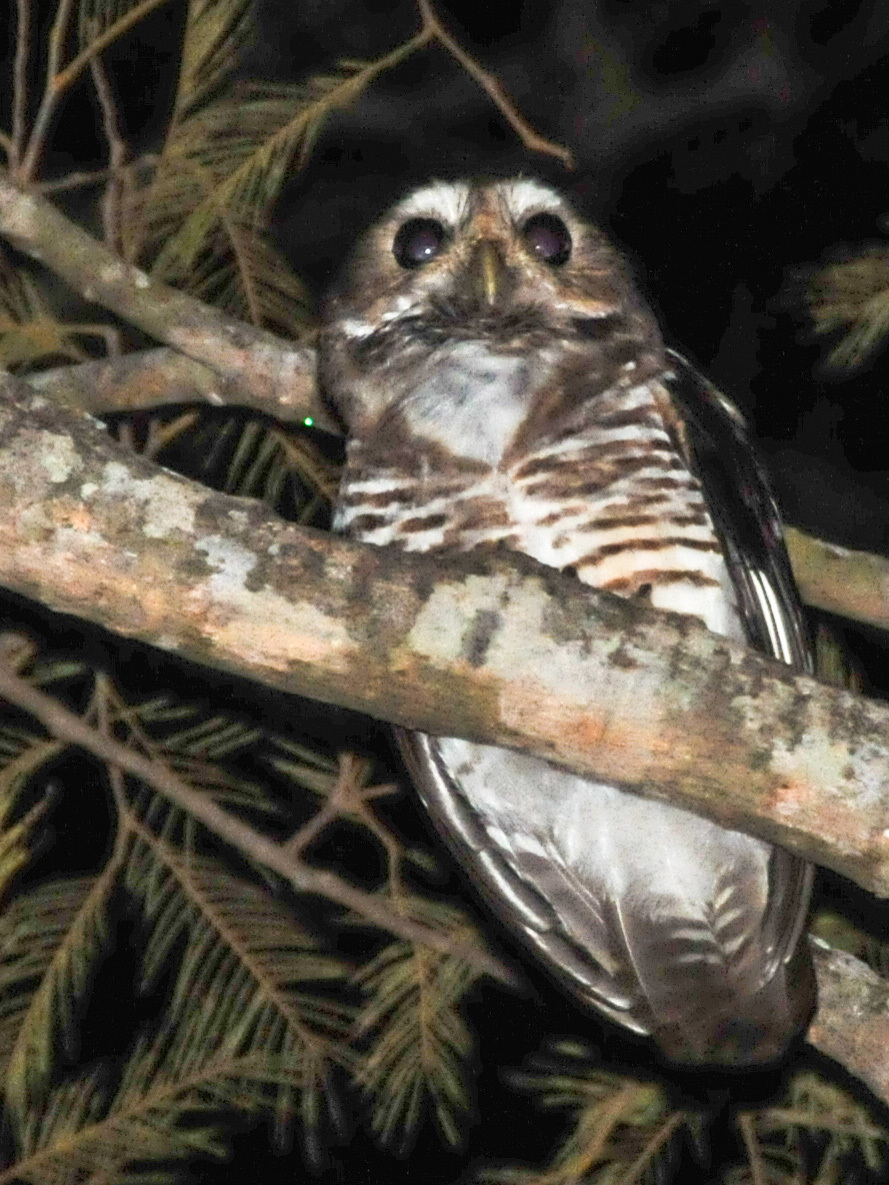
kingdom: Animalia
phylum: Chordata
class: Aves
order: Strigiformes
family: Strigidae
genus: Ninox
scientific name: Ninox superciliaris
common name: White-browed hawk-owl
